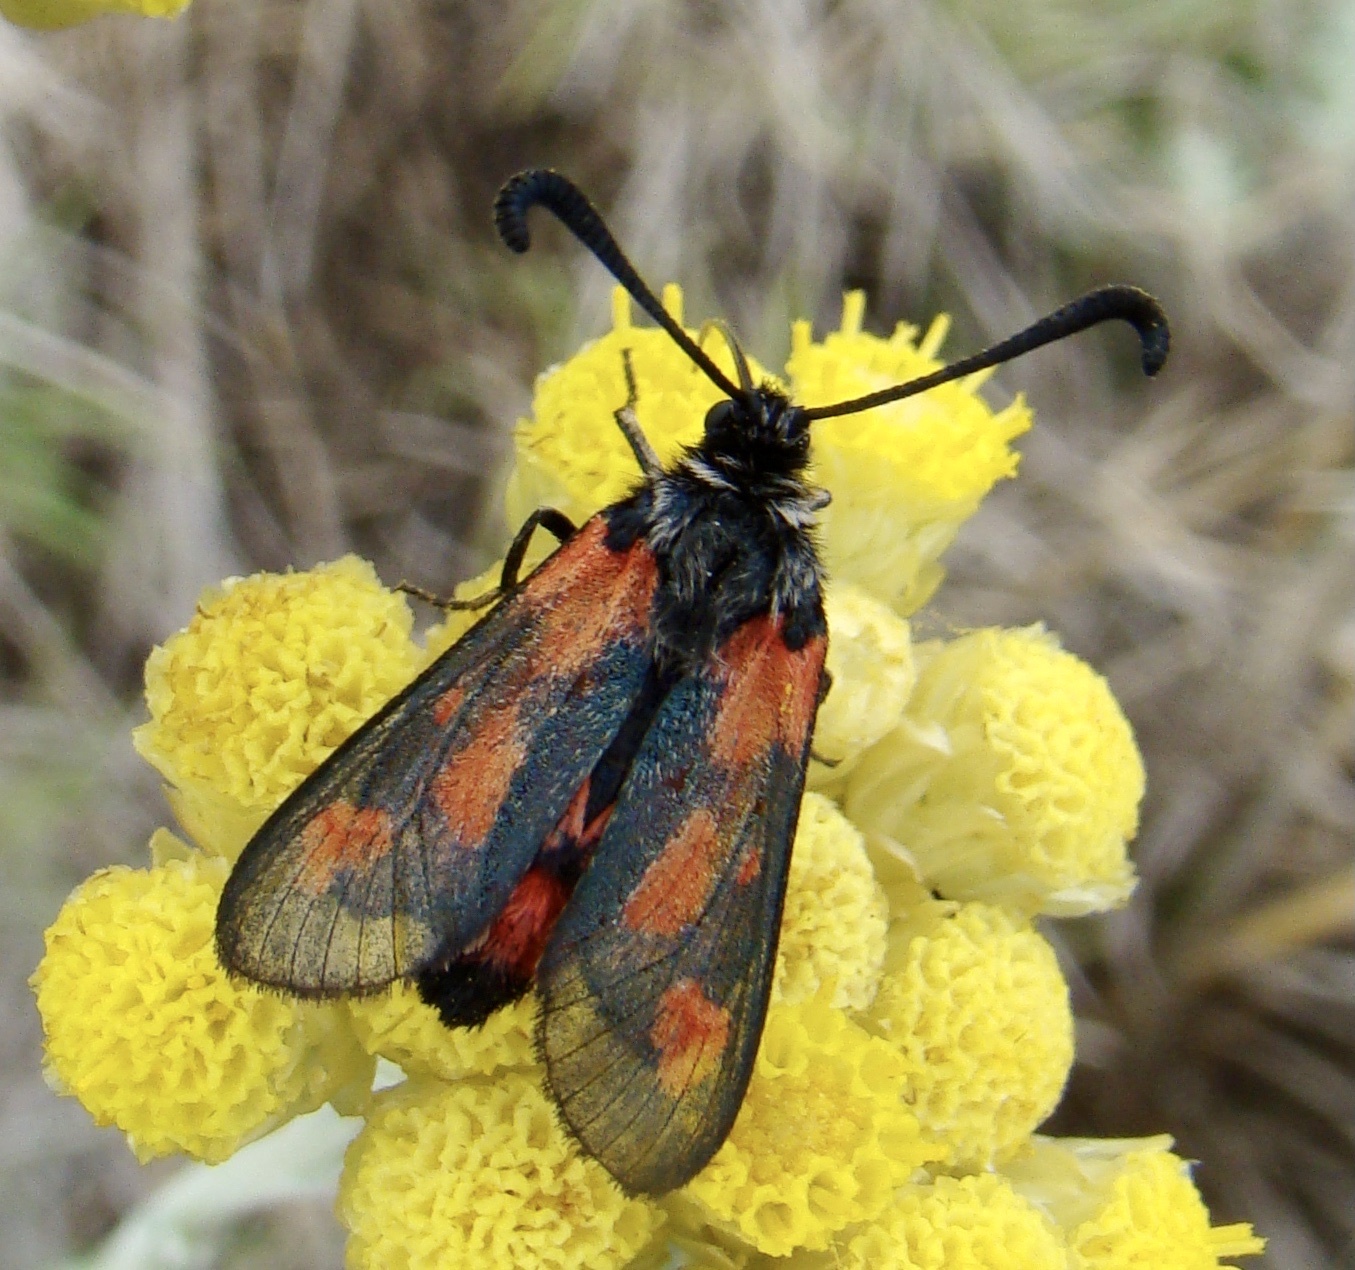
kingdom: Animalia
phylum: Arthropoda
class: Insecta
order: Lepidoptera
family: Zygaenidae
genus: Zygaena
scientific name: Zygaena sarpedon
